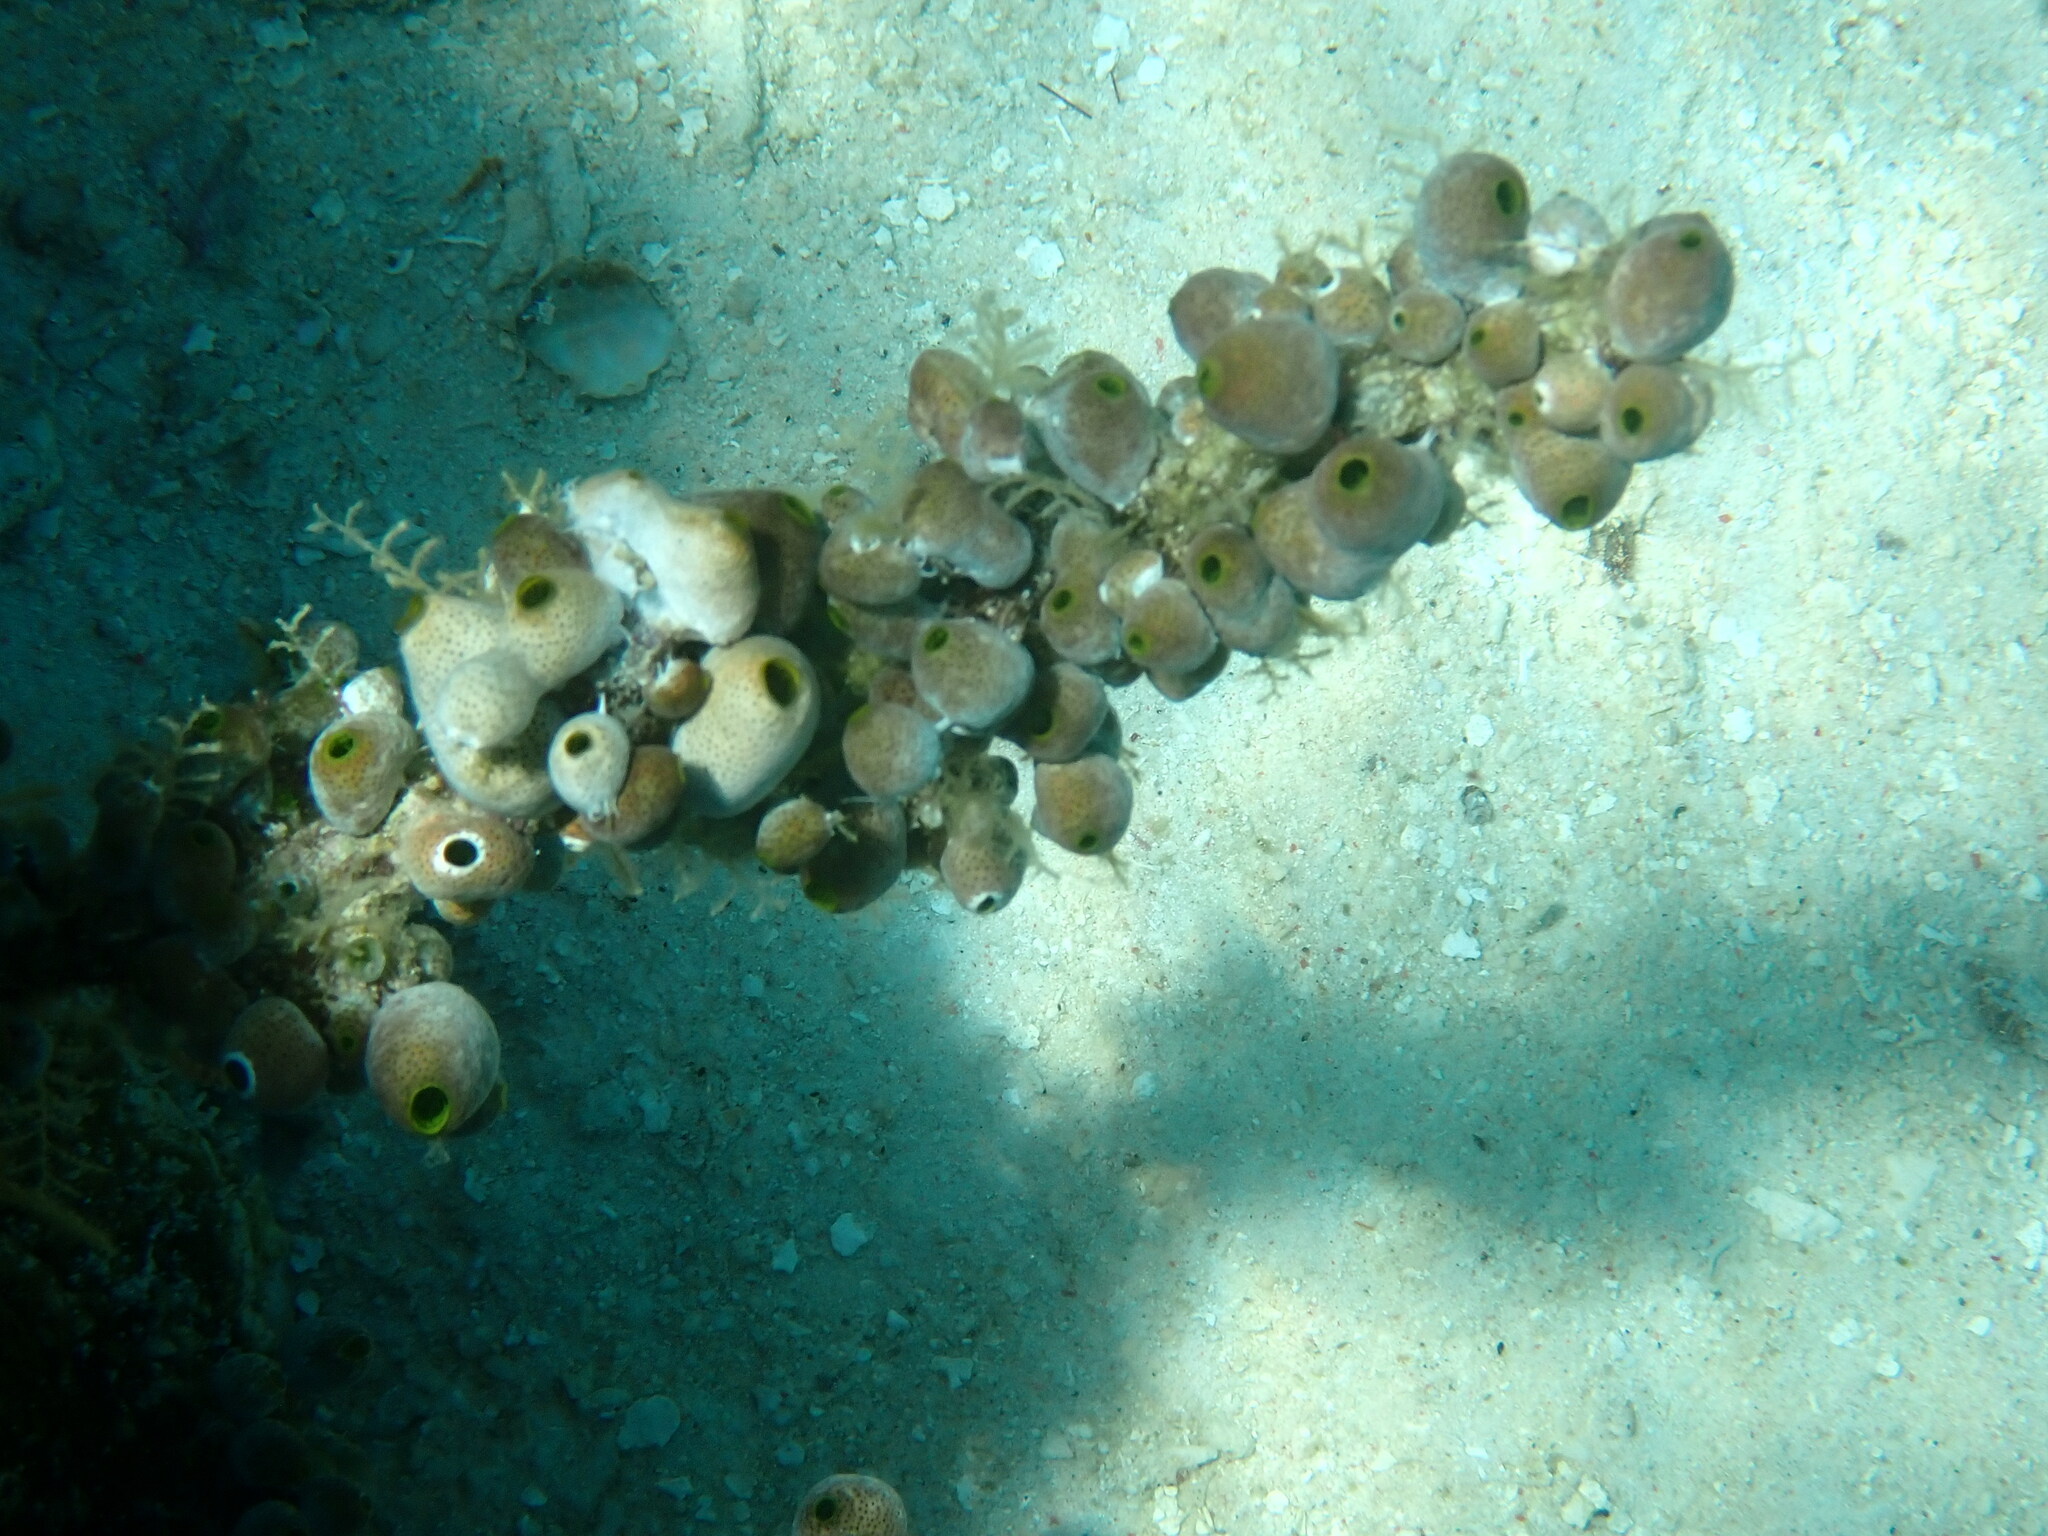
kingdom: Animalia
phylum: Chordata
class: Ascidiacea
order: Aplousobranchia
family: Didemnidae
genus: Didemnum
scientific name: Didemnum molle
